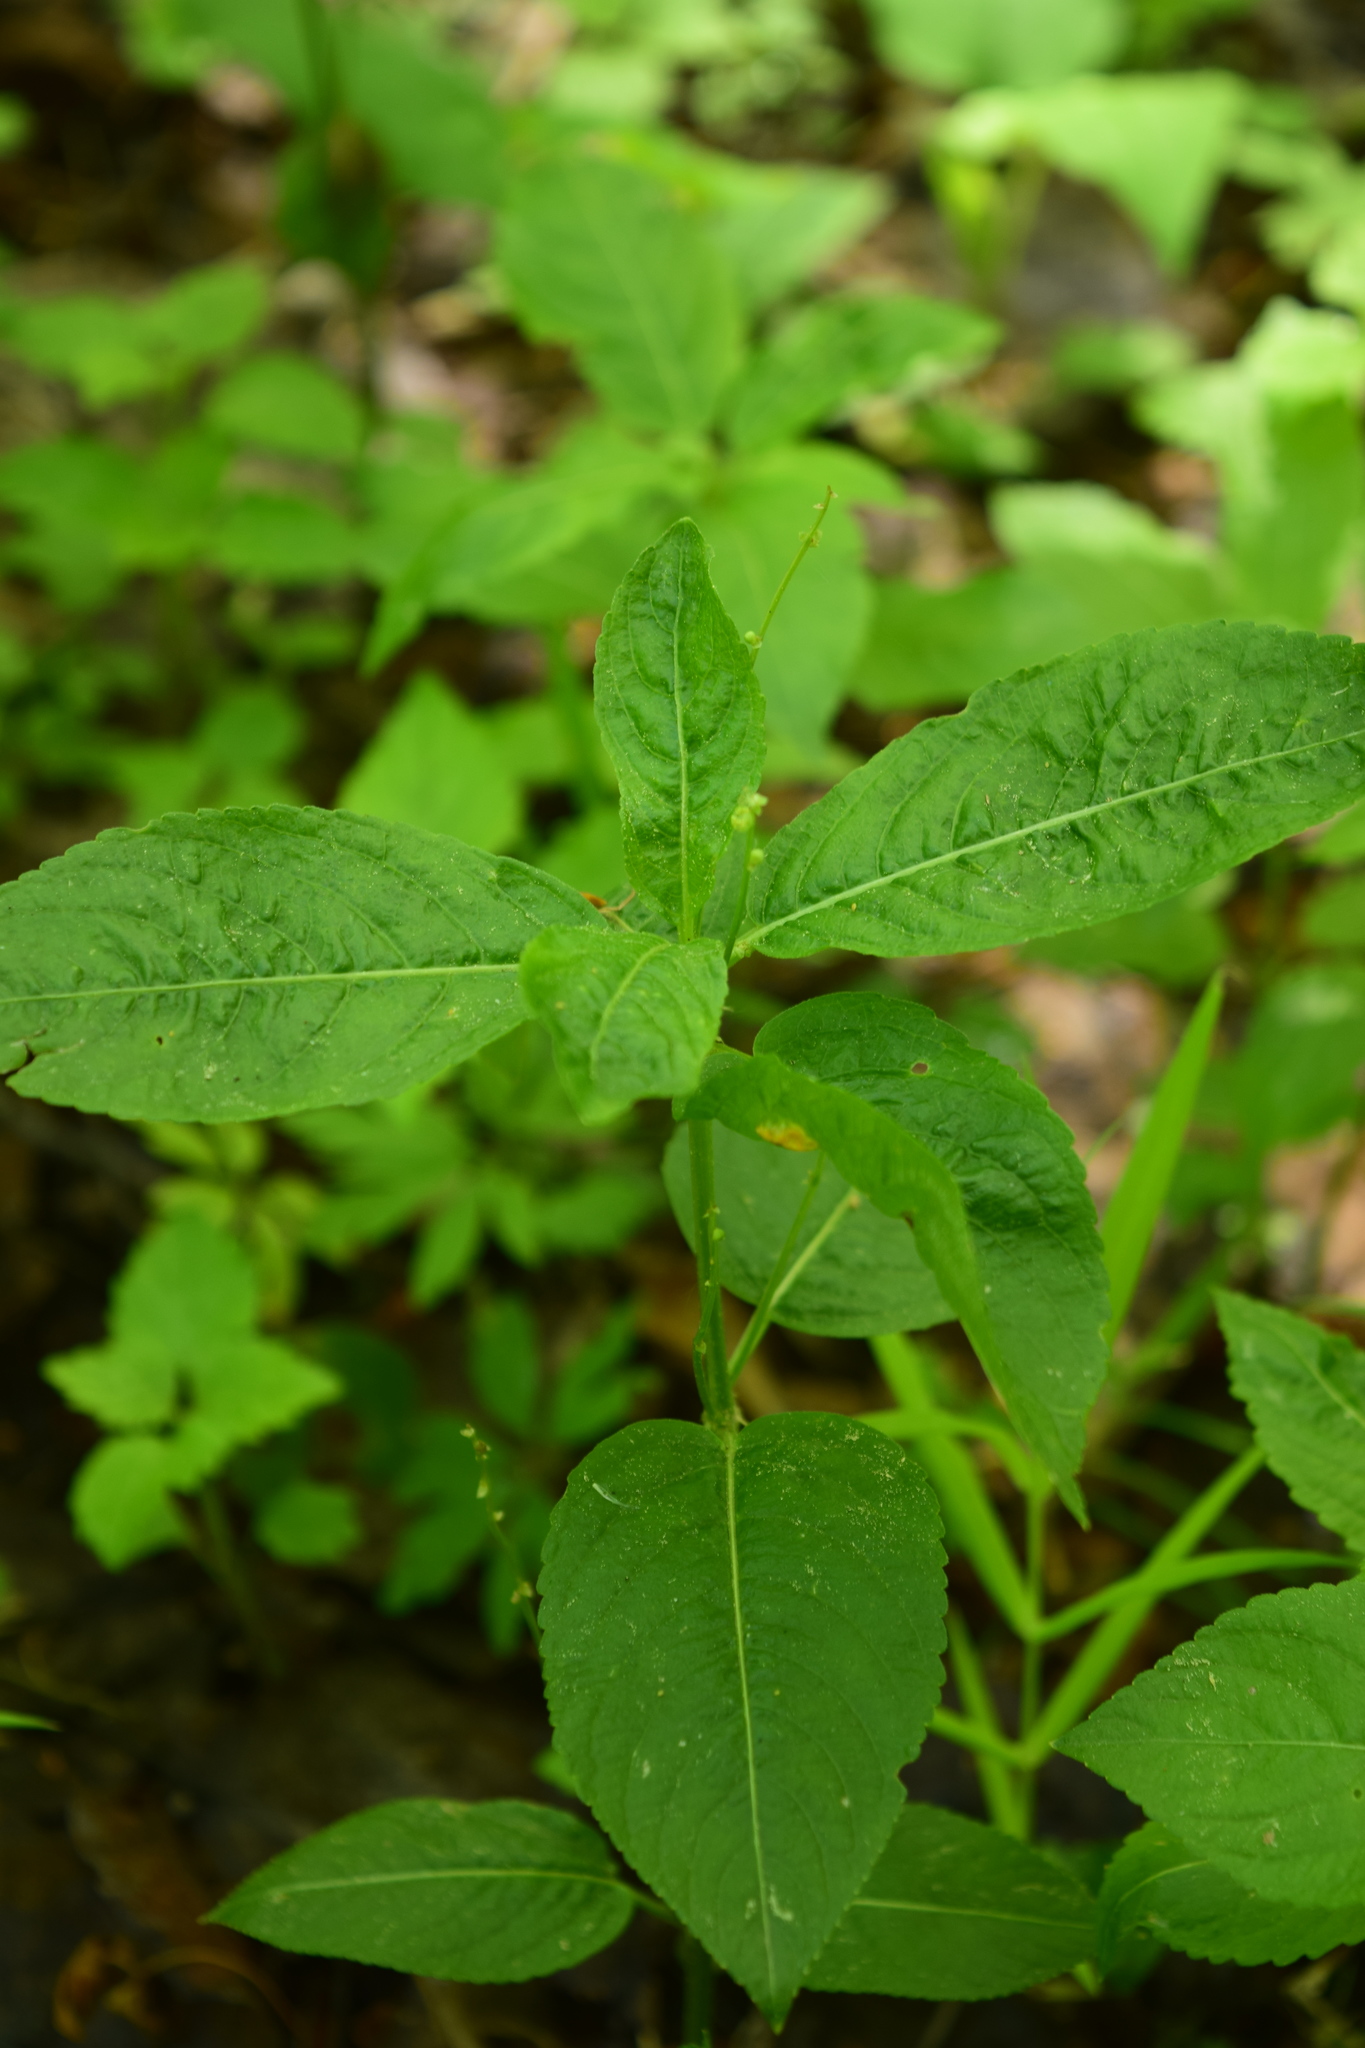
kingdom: Plantae
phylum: Tracheophyta
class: Magnoliopsida
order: Malpighiales
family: Euphorbiaceae
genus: Mercurialis
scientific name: Mercurialis perennis
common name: Dog mercury
